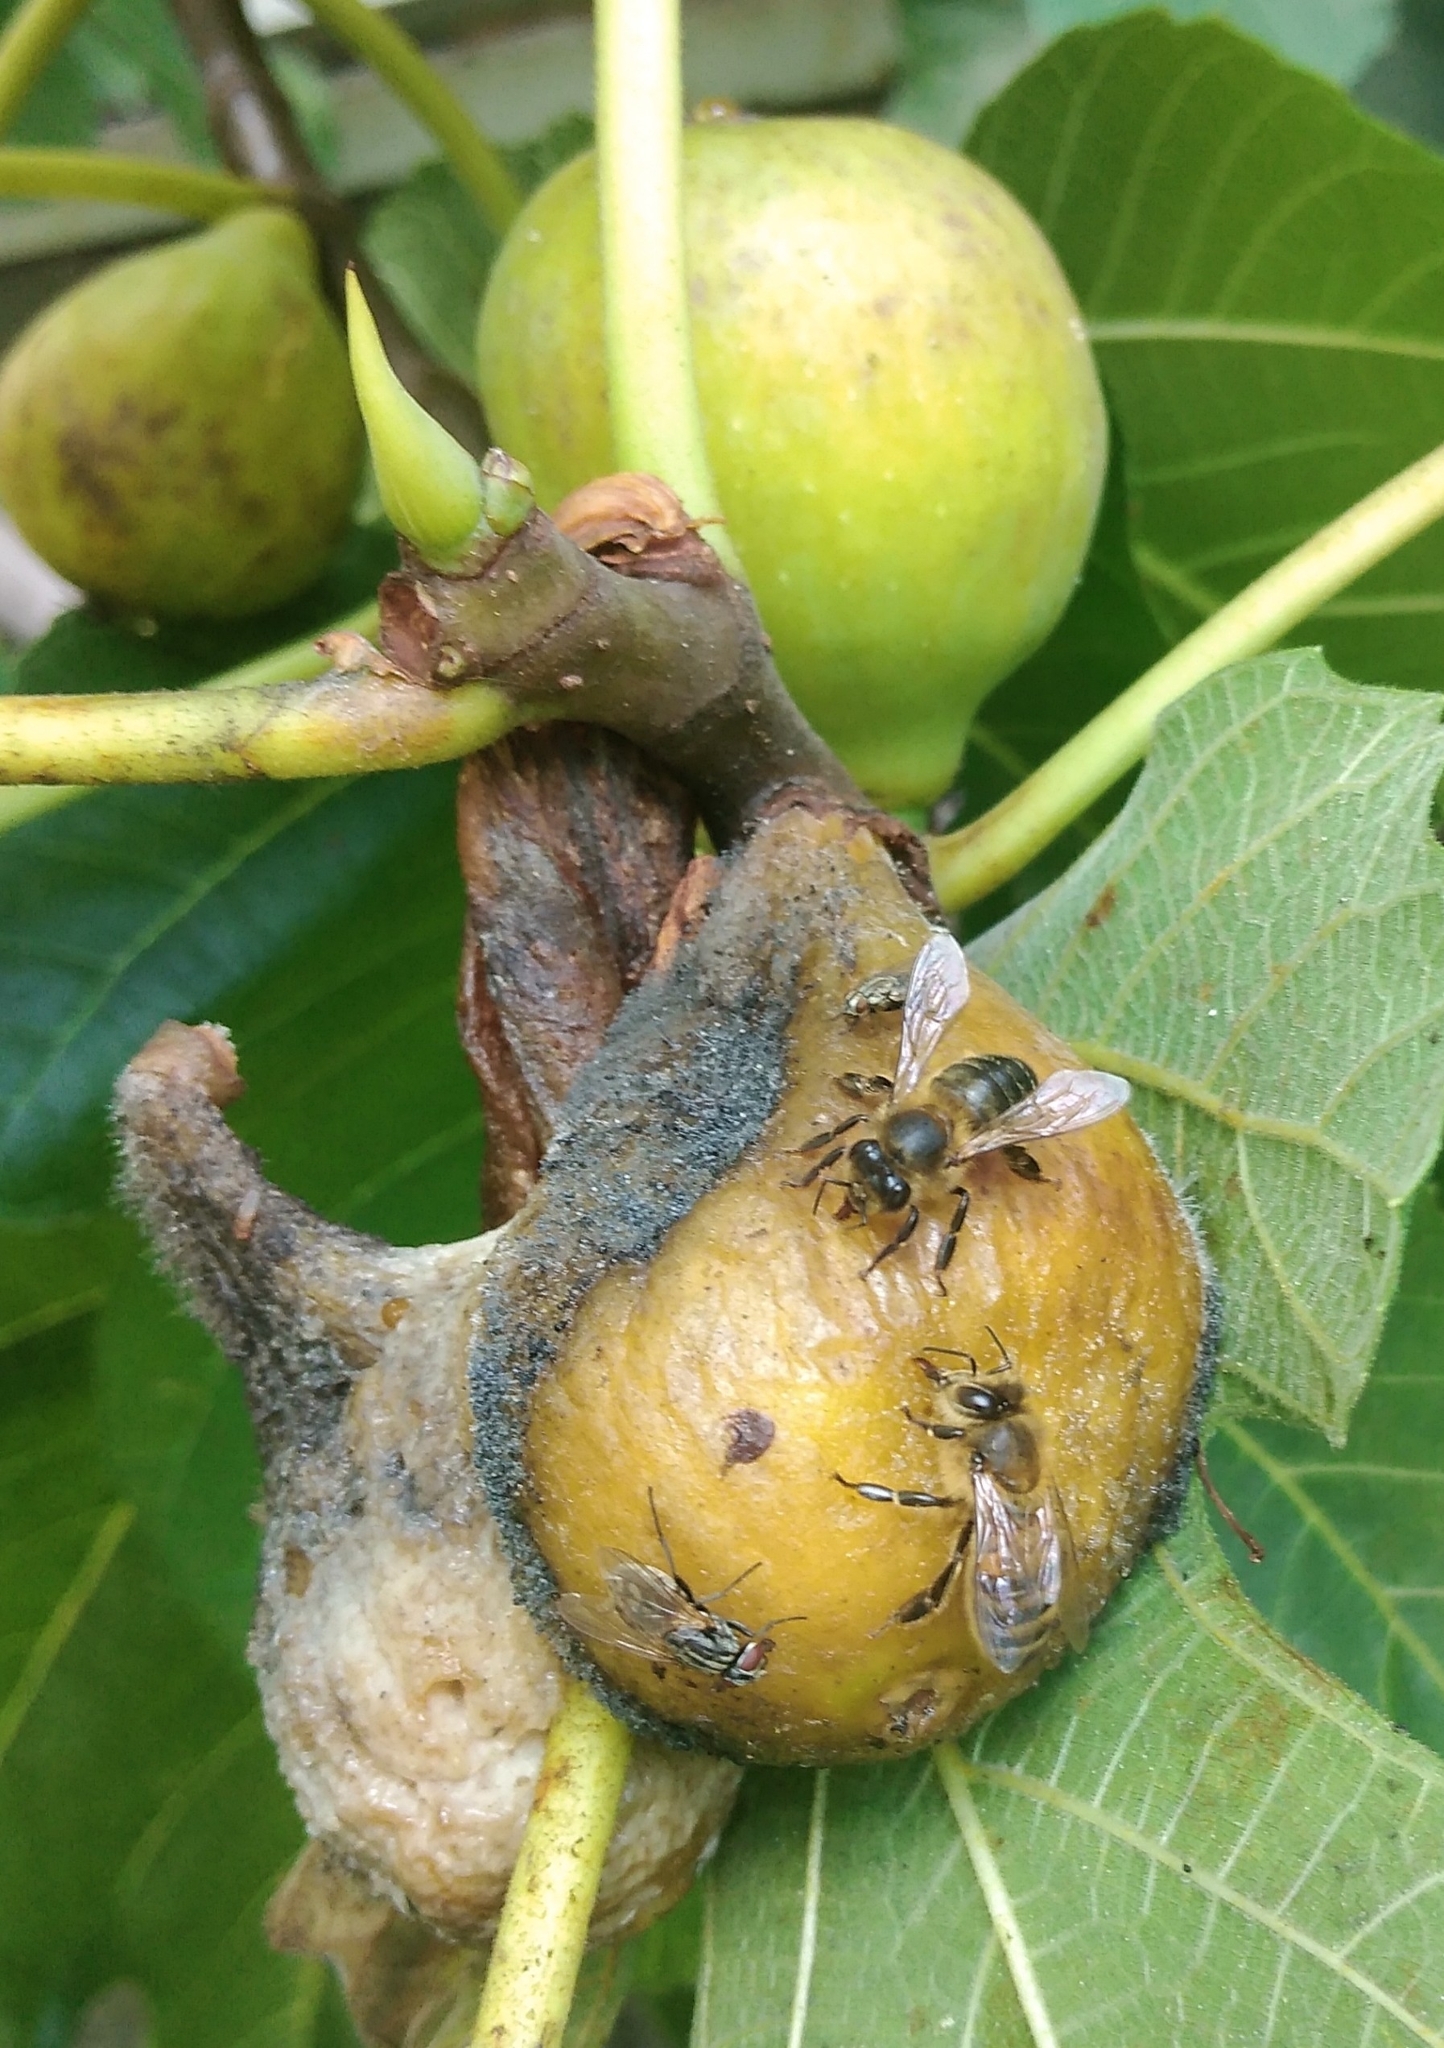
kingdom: Animalia
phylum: Arthropoda
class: Insecta
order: Hymenoptera
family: Apidae
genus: Apis
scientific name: Apis mellifera
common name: Honey bee
